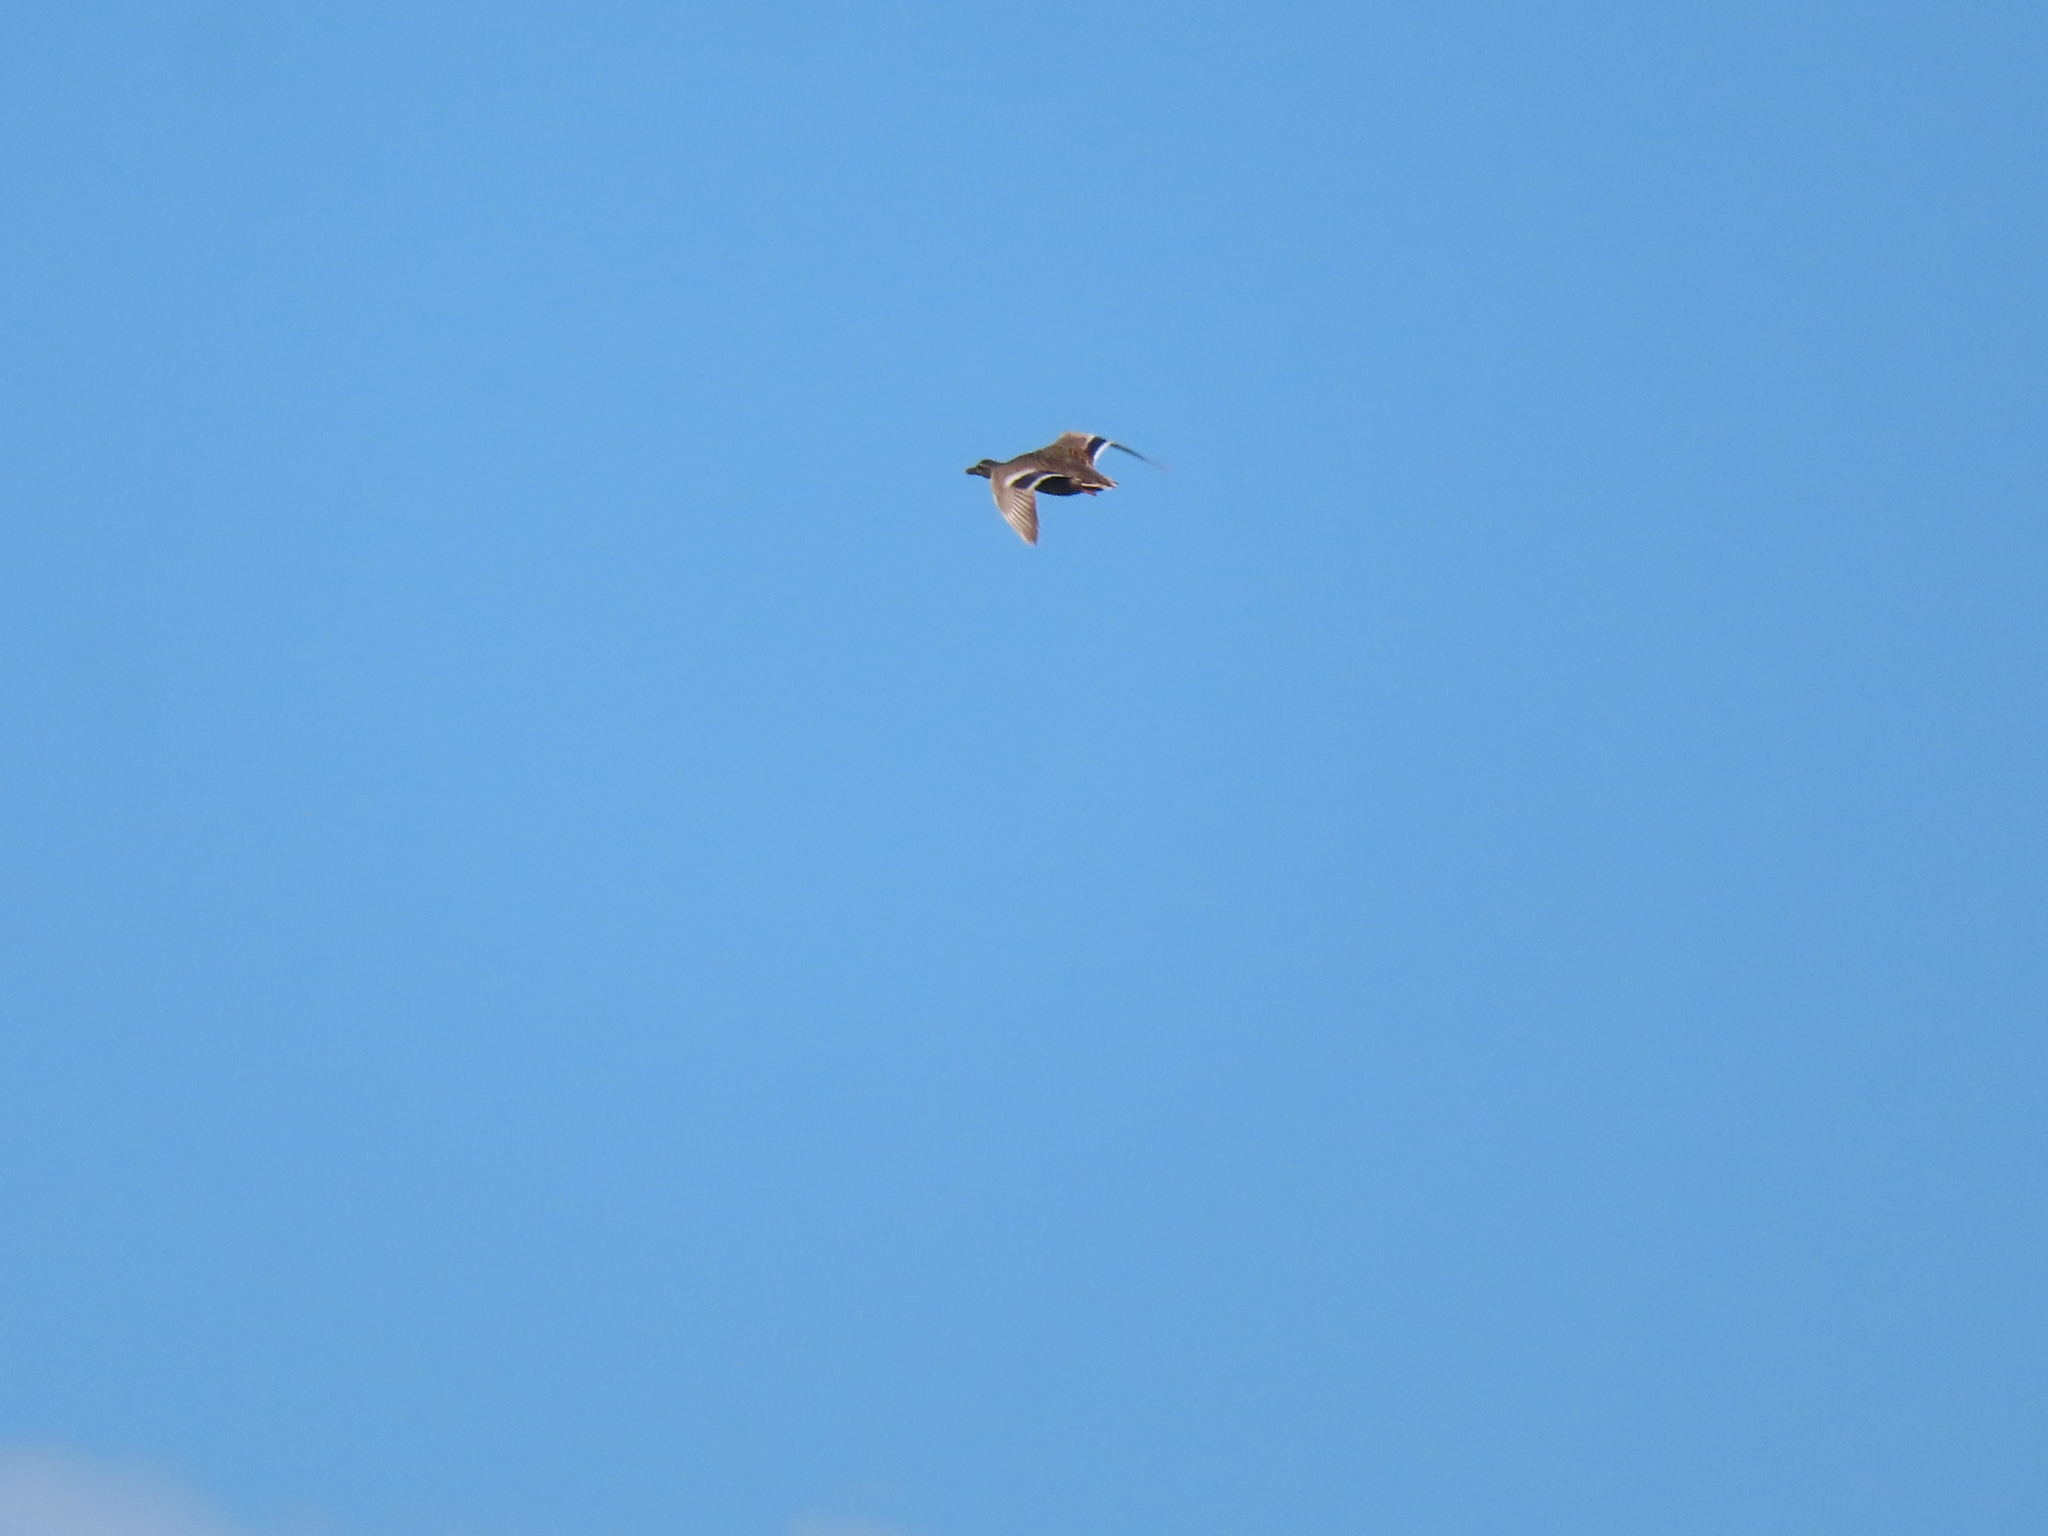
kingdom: Animalia
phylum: Chordata
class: Aves
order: Anseriformes
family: Anatidae
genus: Anas
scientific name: Anas platyrhynchos
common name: Mallard
